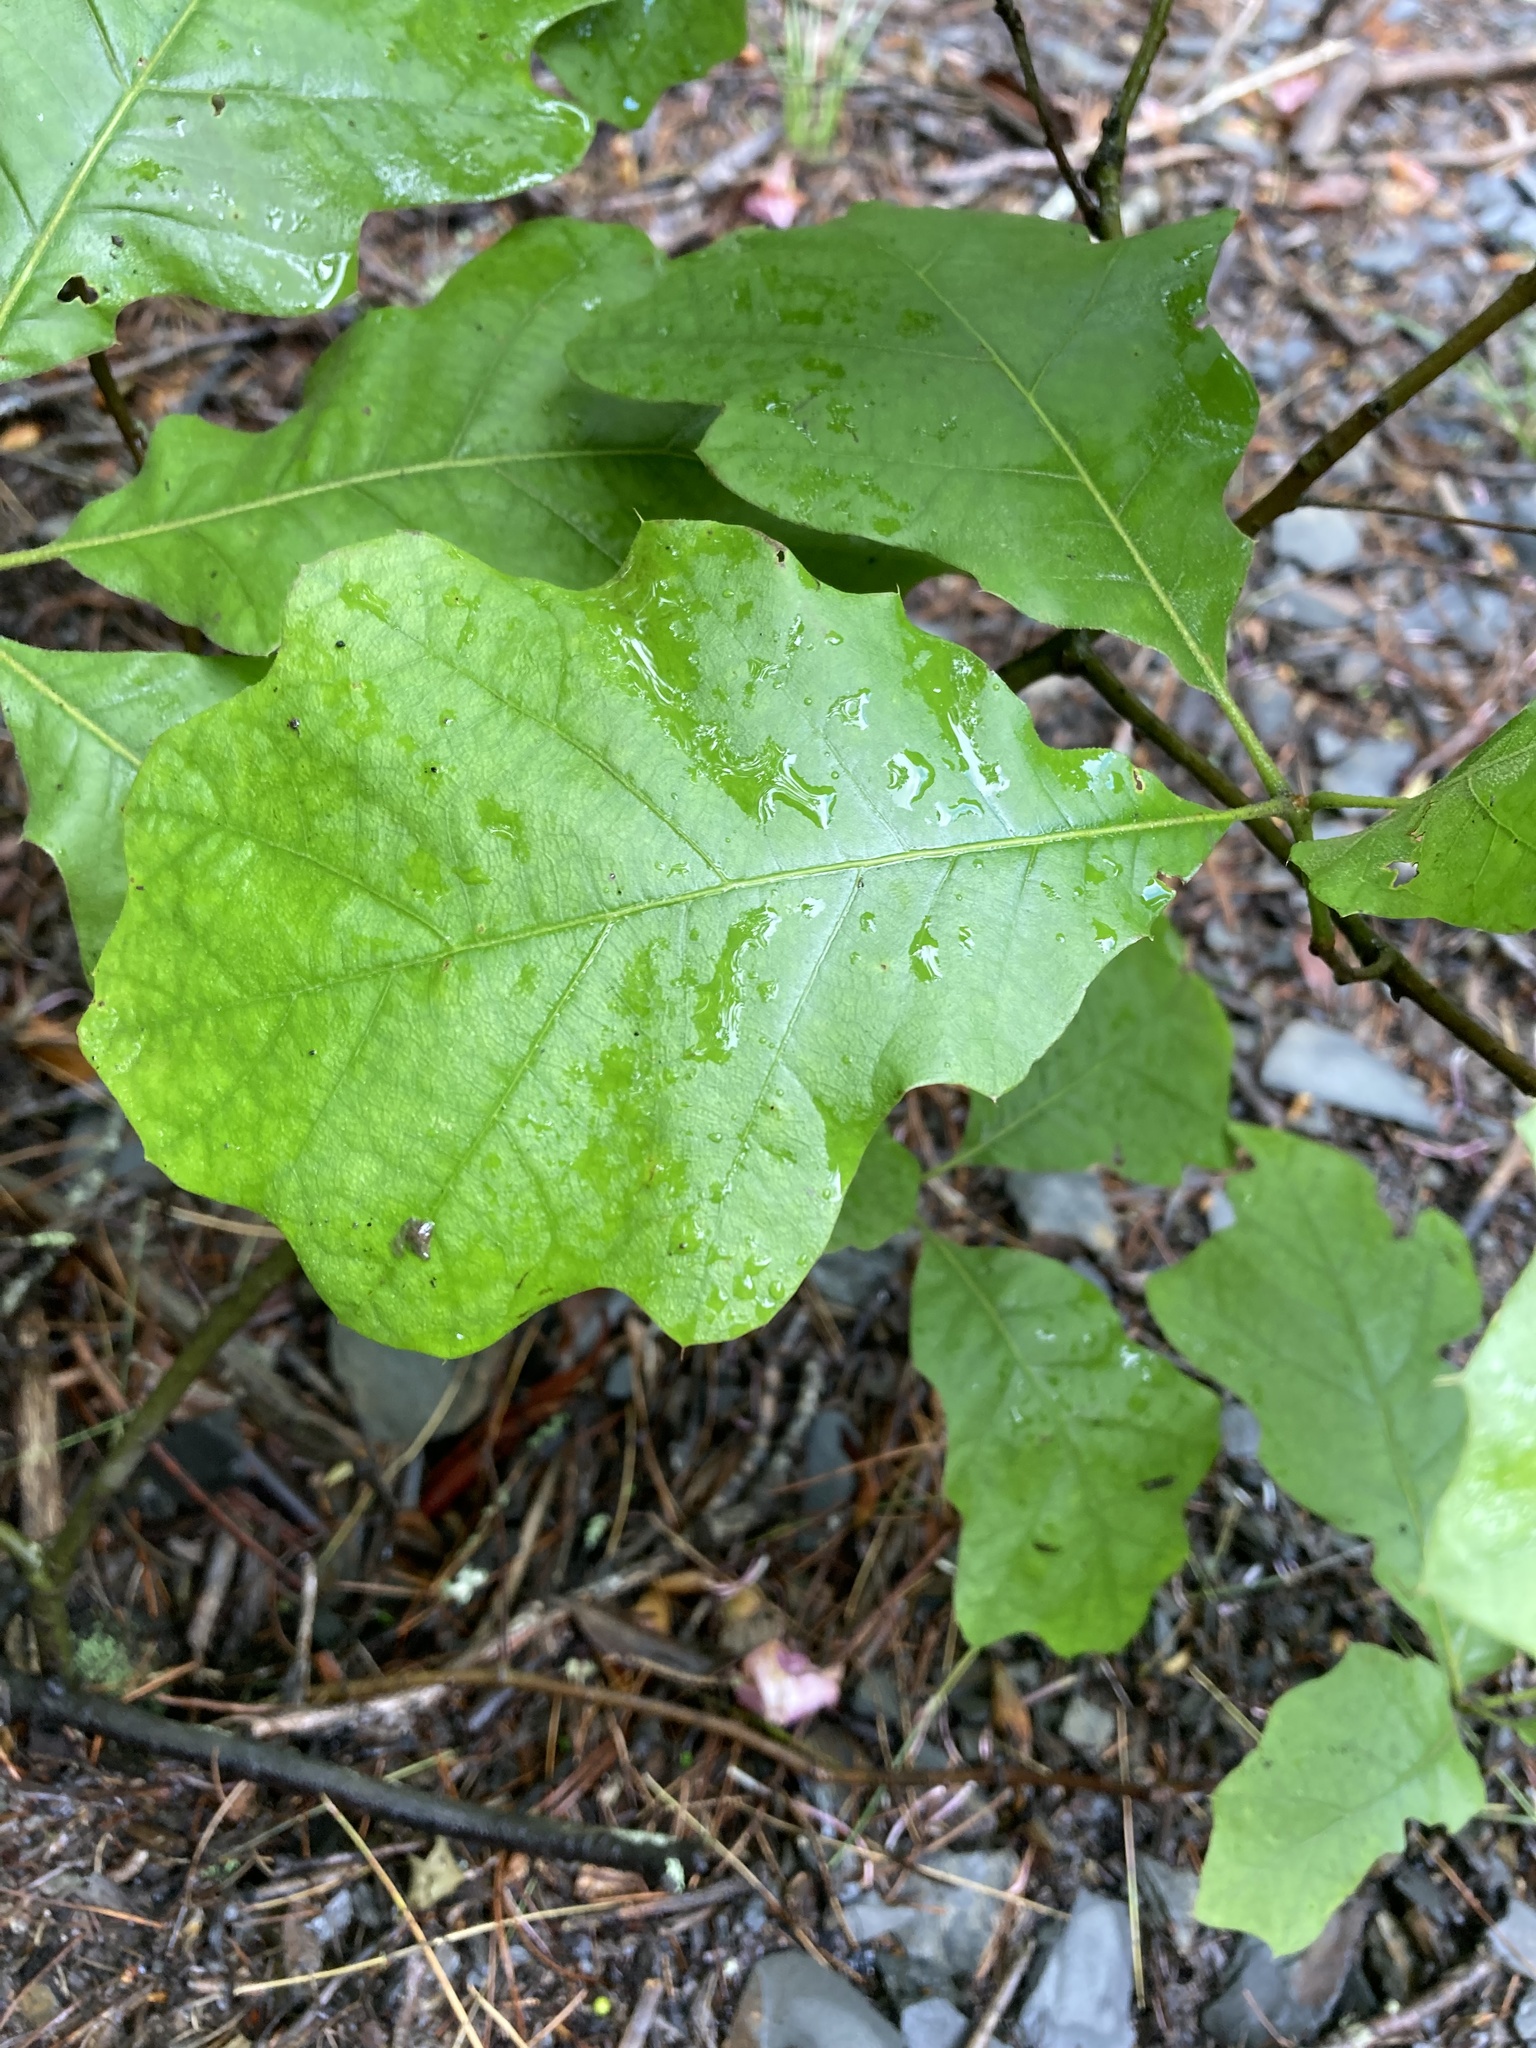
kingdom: Plantae
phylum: Tracheophyta
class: Magnoliopsida
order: Fagales
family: Fagaceae
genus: Quercus
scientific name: Quercus velutina
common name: Black oak
